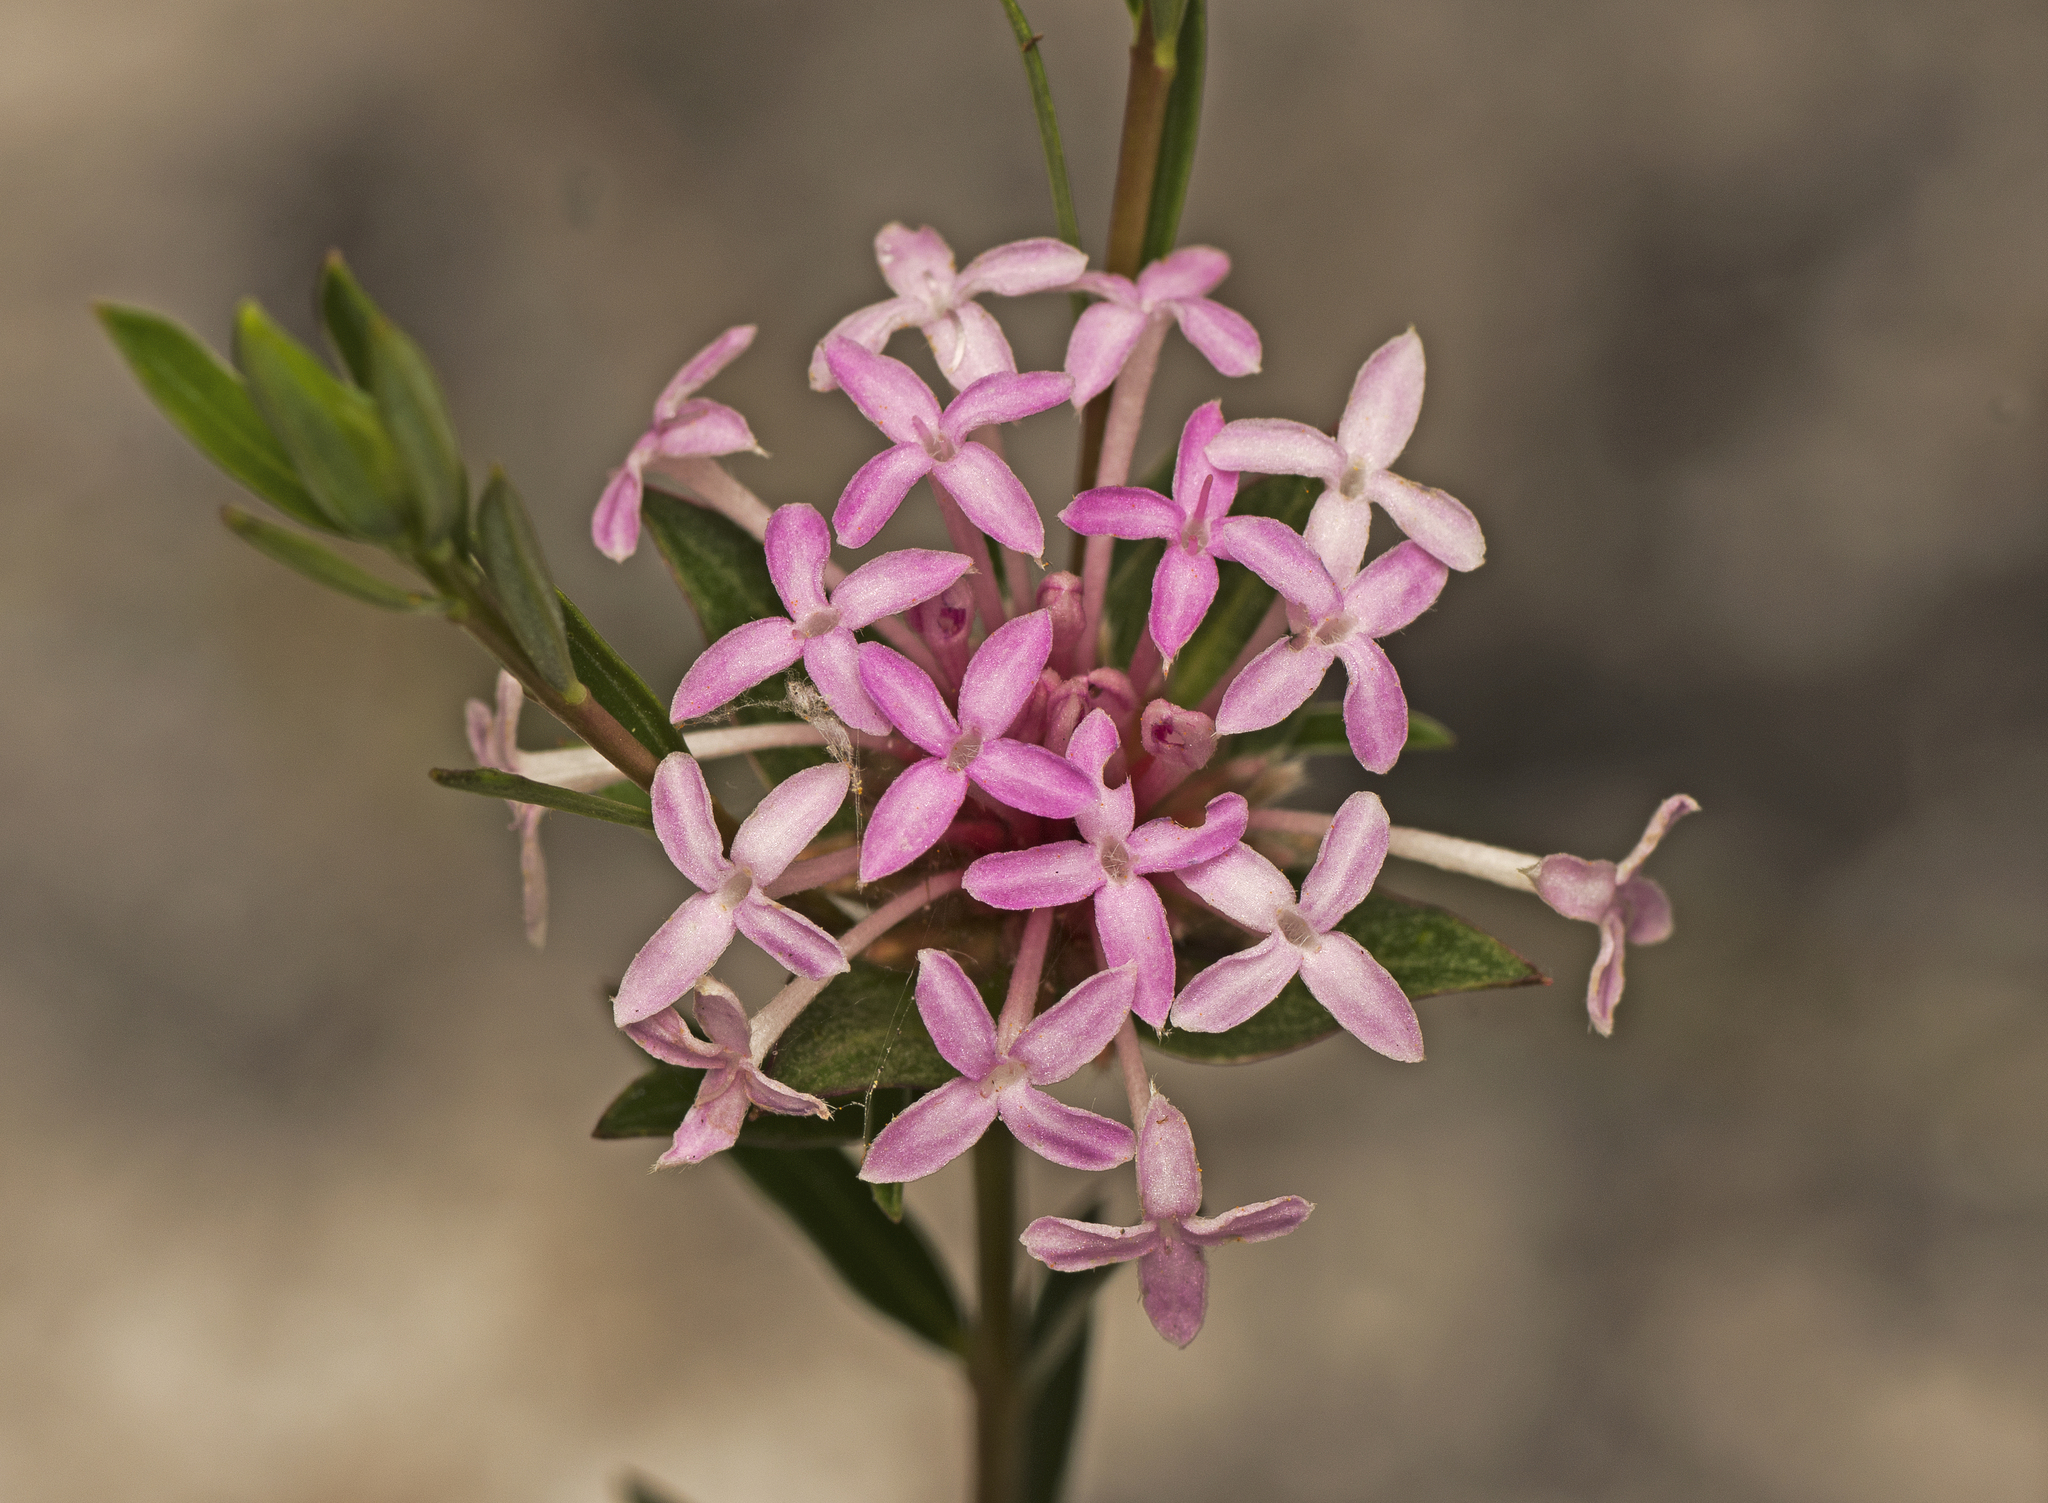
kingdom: Plantae
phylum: Tracheophyta
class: Magnoliopsida
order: Malvales
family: Thymelaeaceae
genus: Pimelea
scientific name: Pimelea linifolia
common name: Queen-of-the-bush
